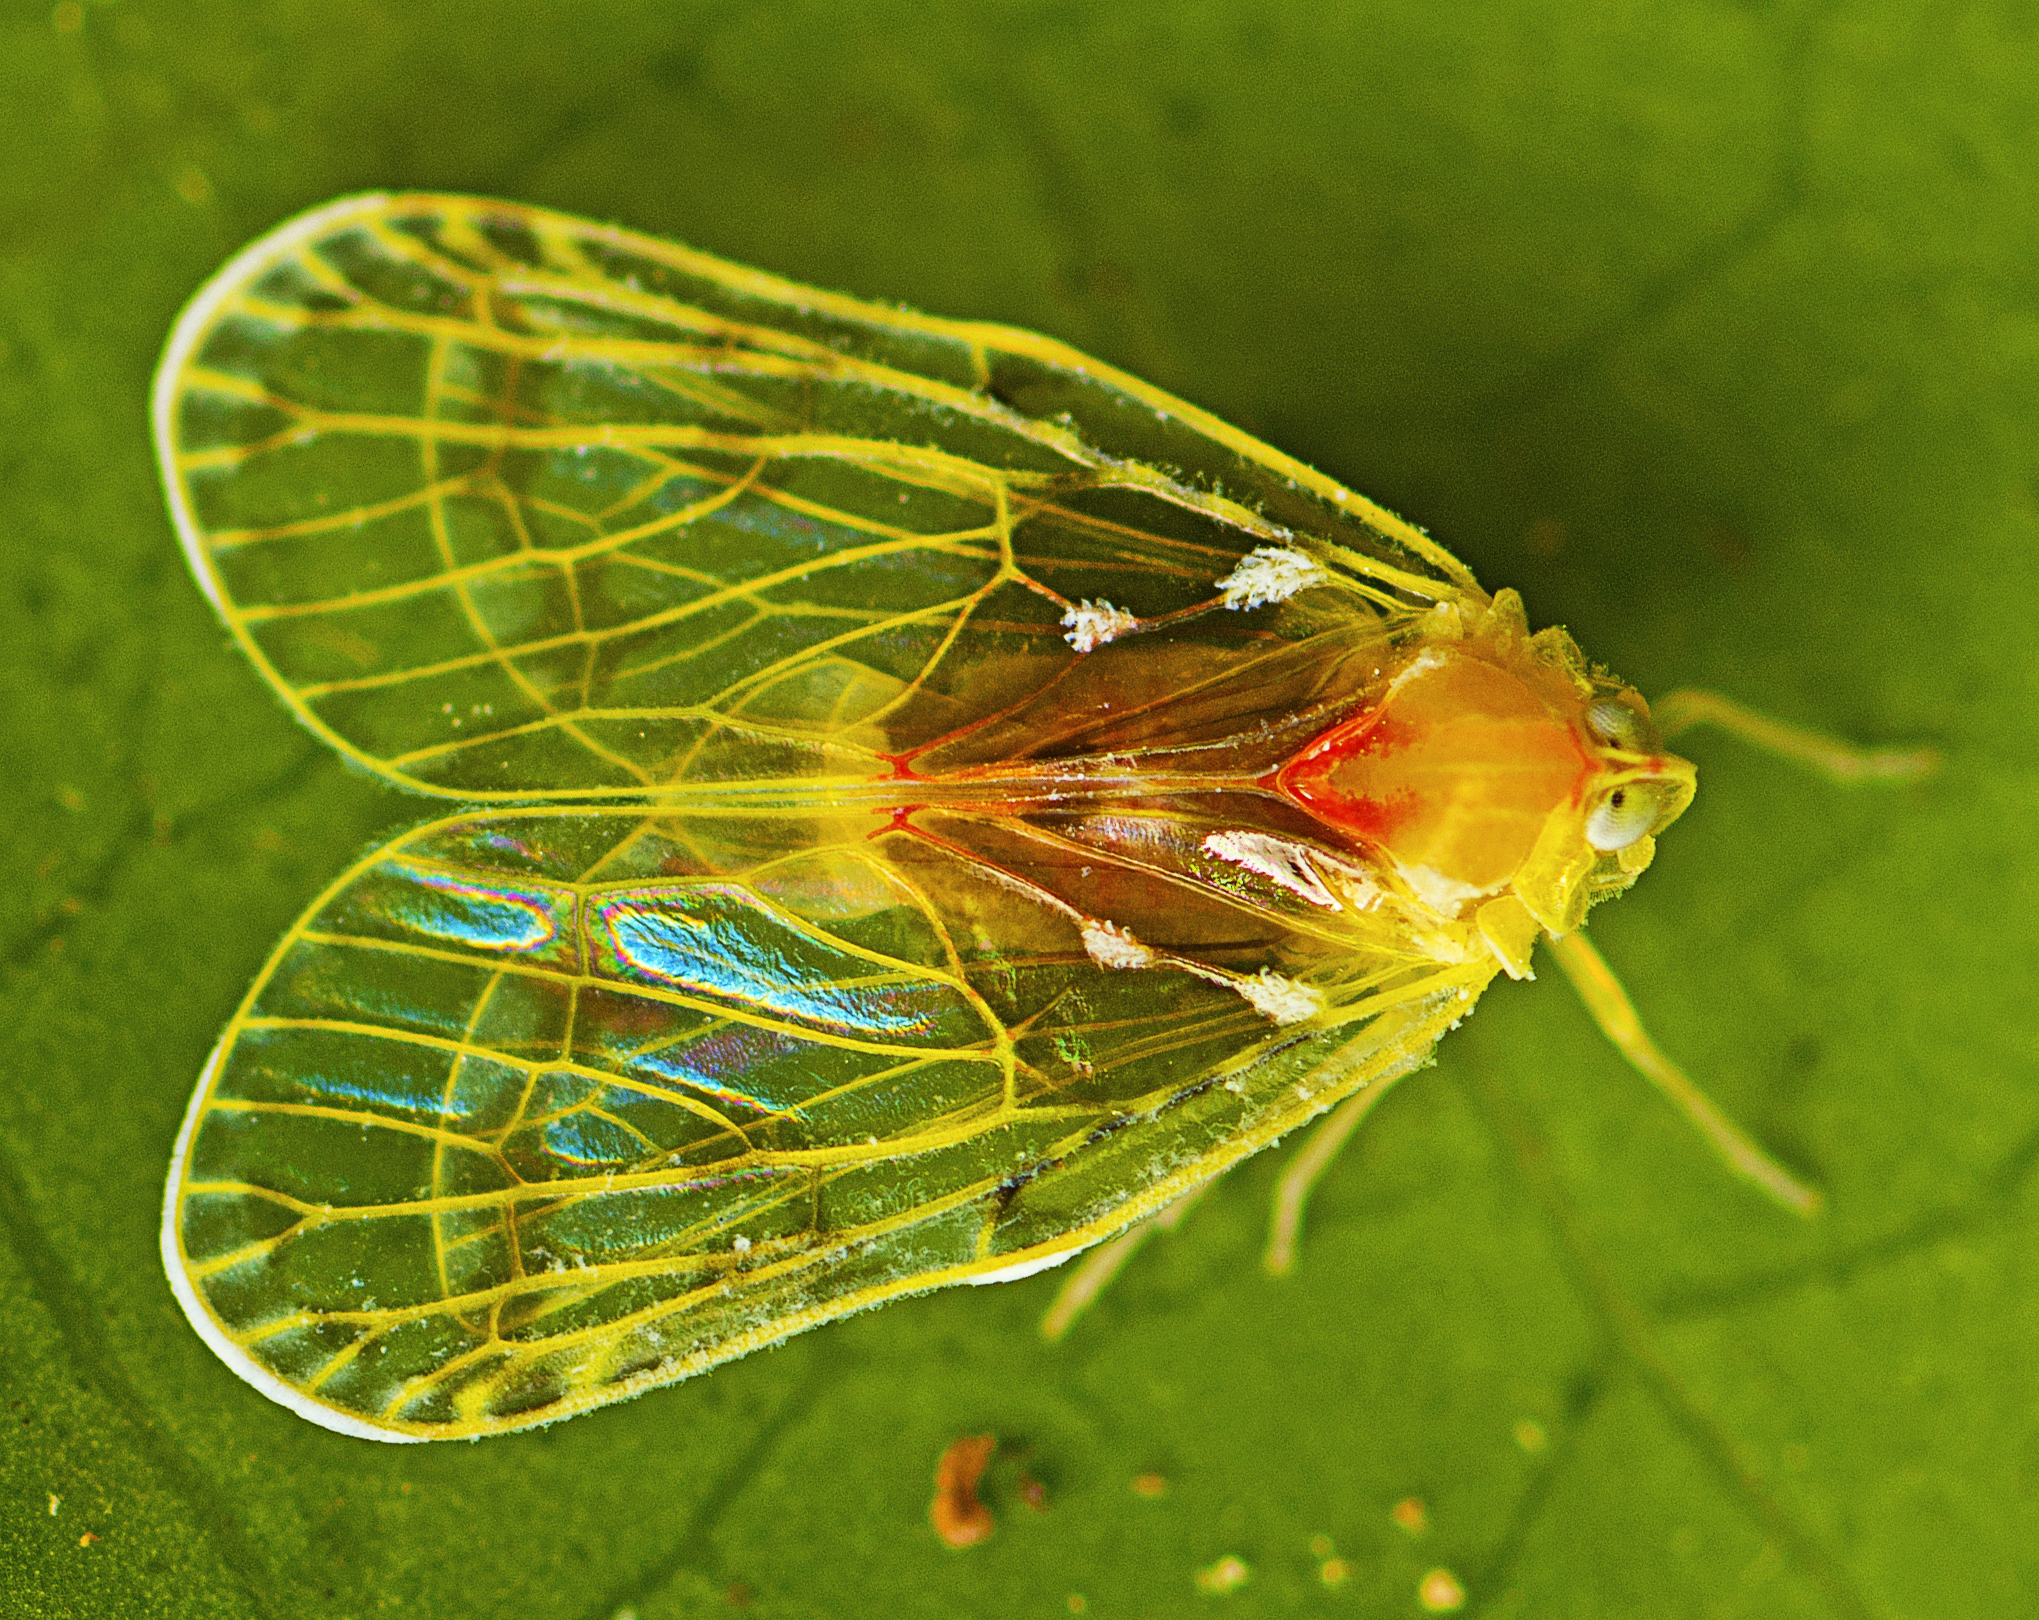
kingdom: Animalia
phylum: Arthropoda
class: Insecta
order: Hemiptera
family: Derbidae
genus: Saccharodite
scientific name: Saccharodite chrysonoe
